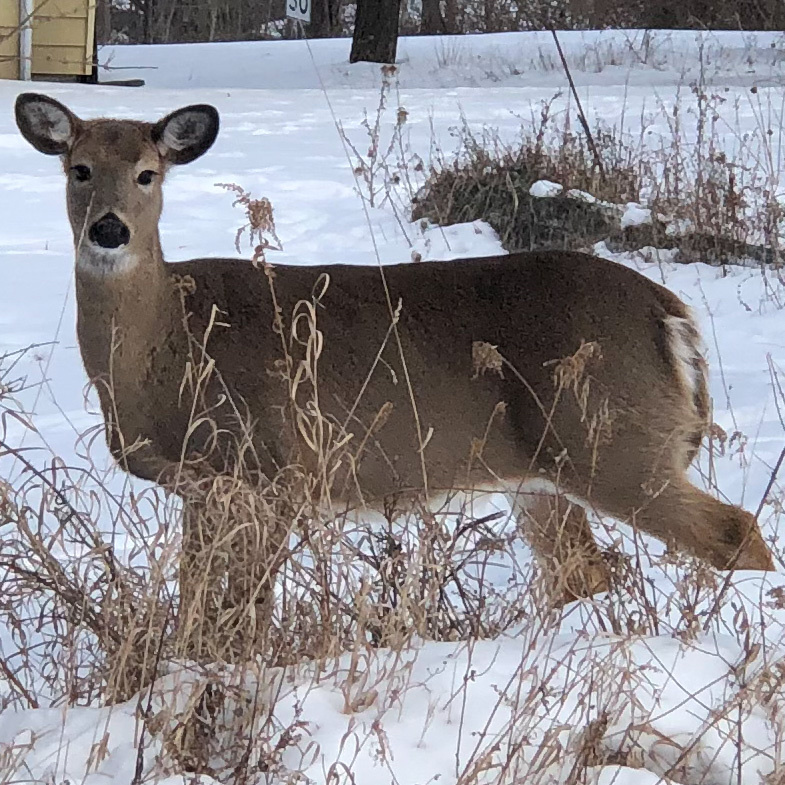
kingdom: Animalia
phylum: Chordata
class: Mammalia
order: Artiodactyla
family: Cervidae
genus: Odocoileus
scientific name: Odocoileus virginianus
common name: White-tailed deer
